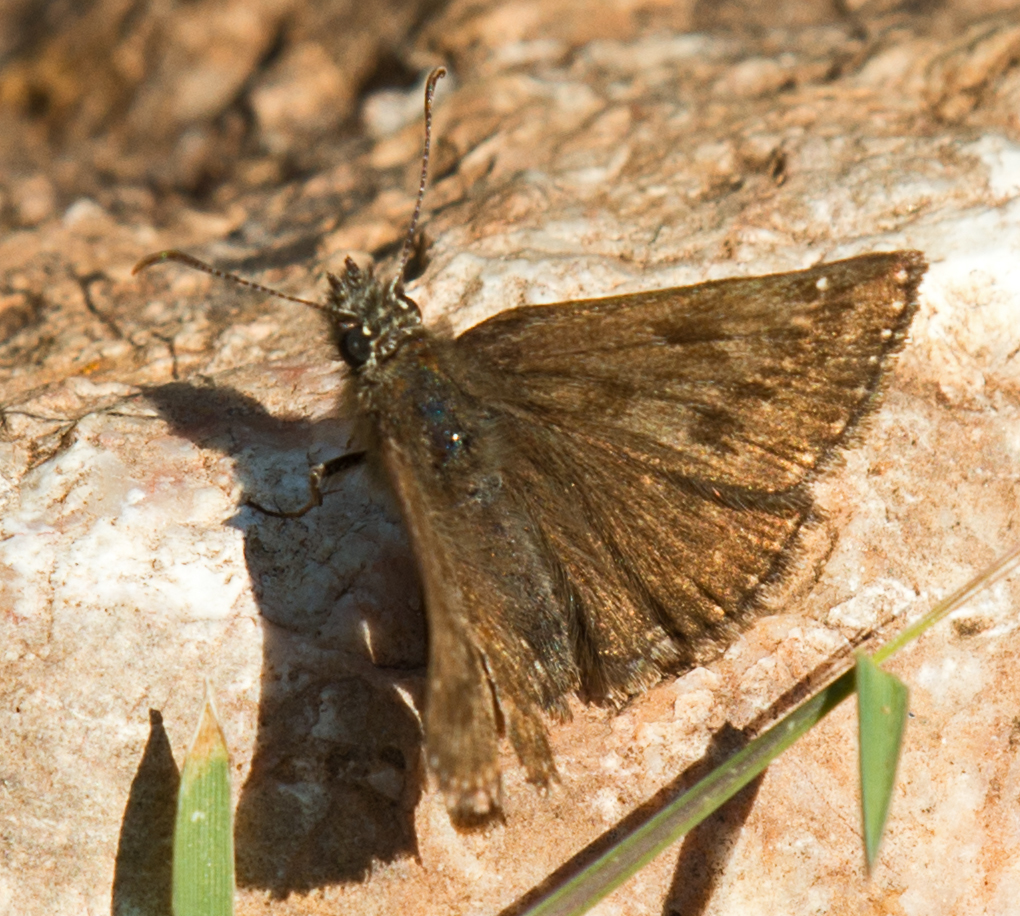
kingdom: Animalia
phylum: Arthropoda
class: Insecta
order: Lepidoptera
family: Hesperiidae
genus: Erynnis
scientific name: Erynnis tages
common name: Dingy skipper
